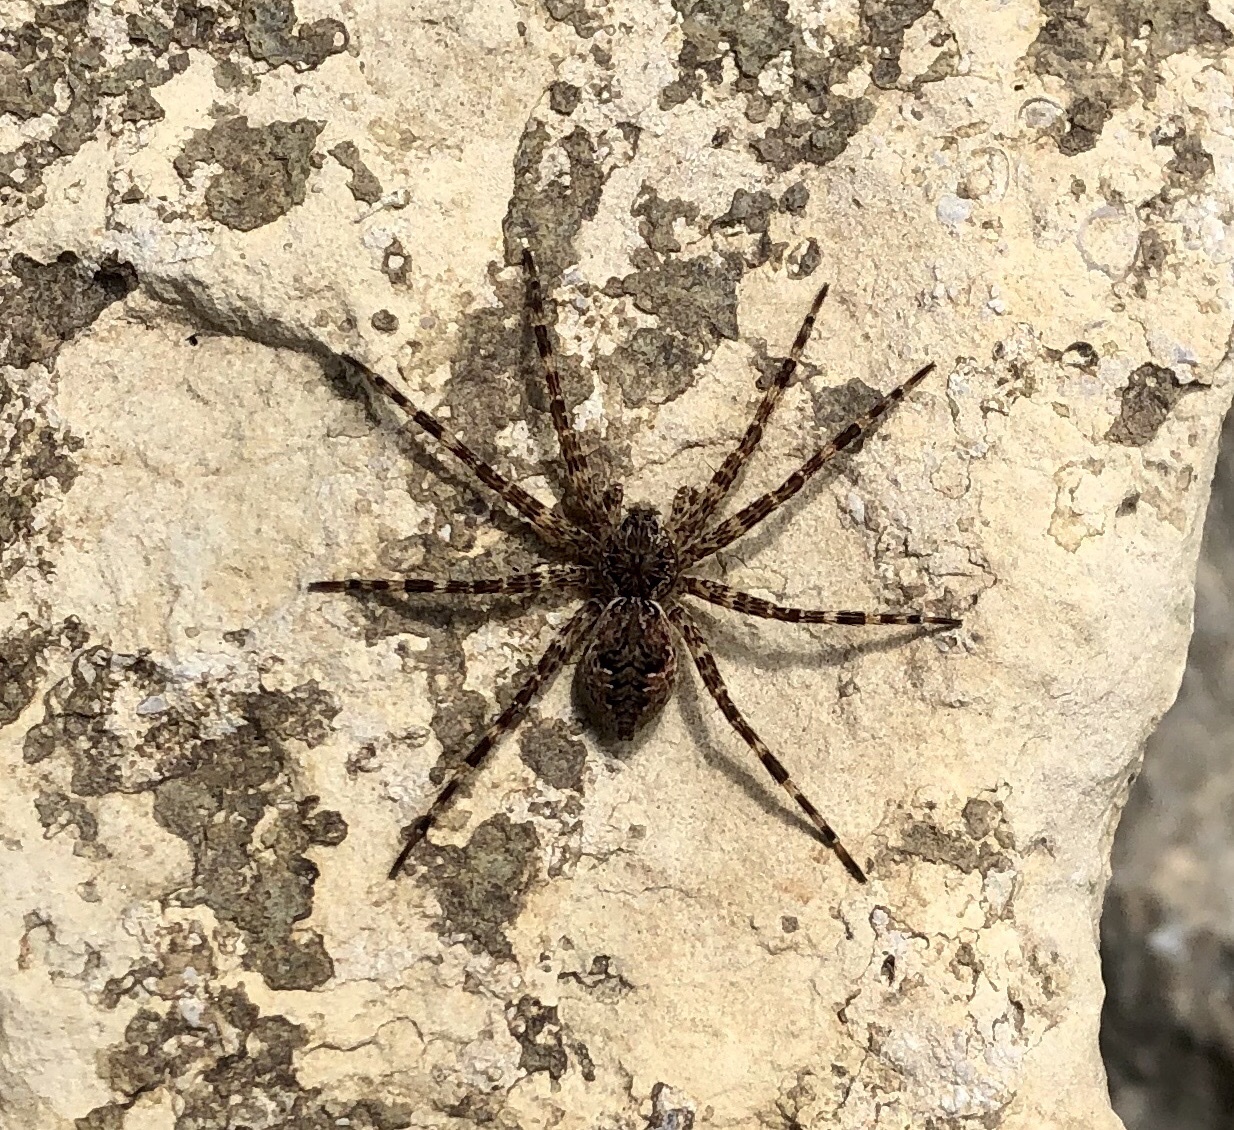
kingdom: Animalia
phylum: Arthropoda
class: Arachnida
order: Araneae
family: Pisauridae
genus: Dolomedes
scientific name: Dolomedes tenebrosus
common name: Dark fishing spider
